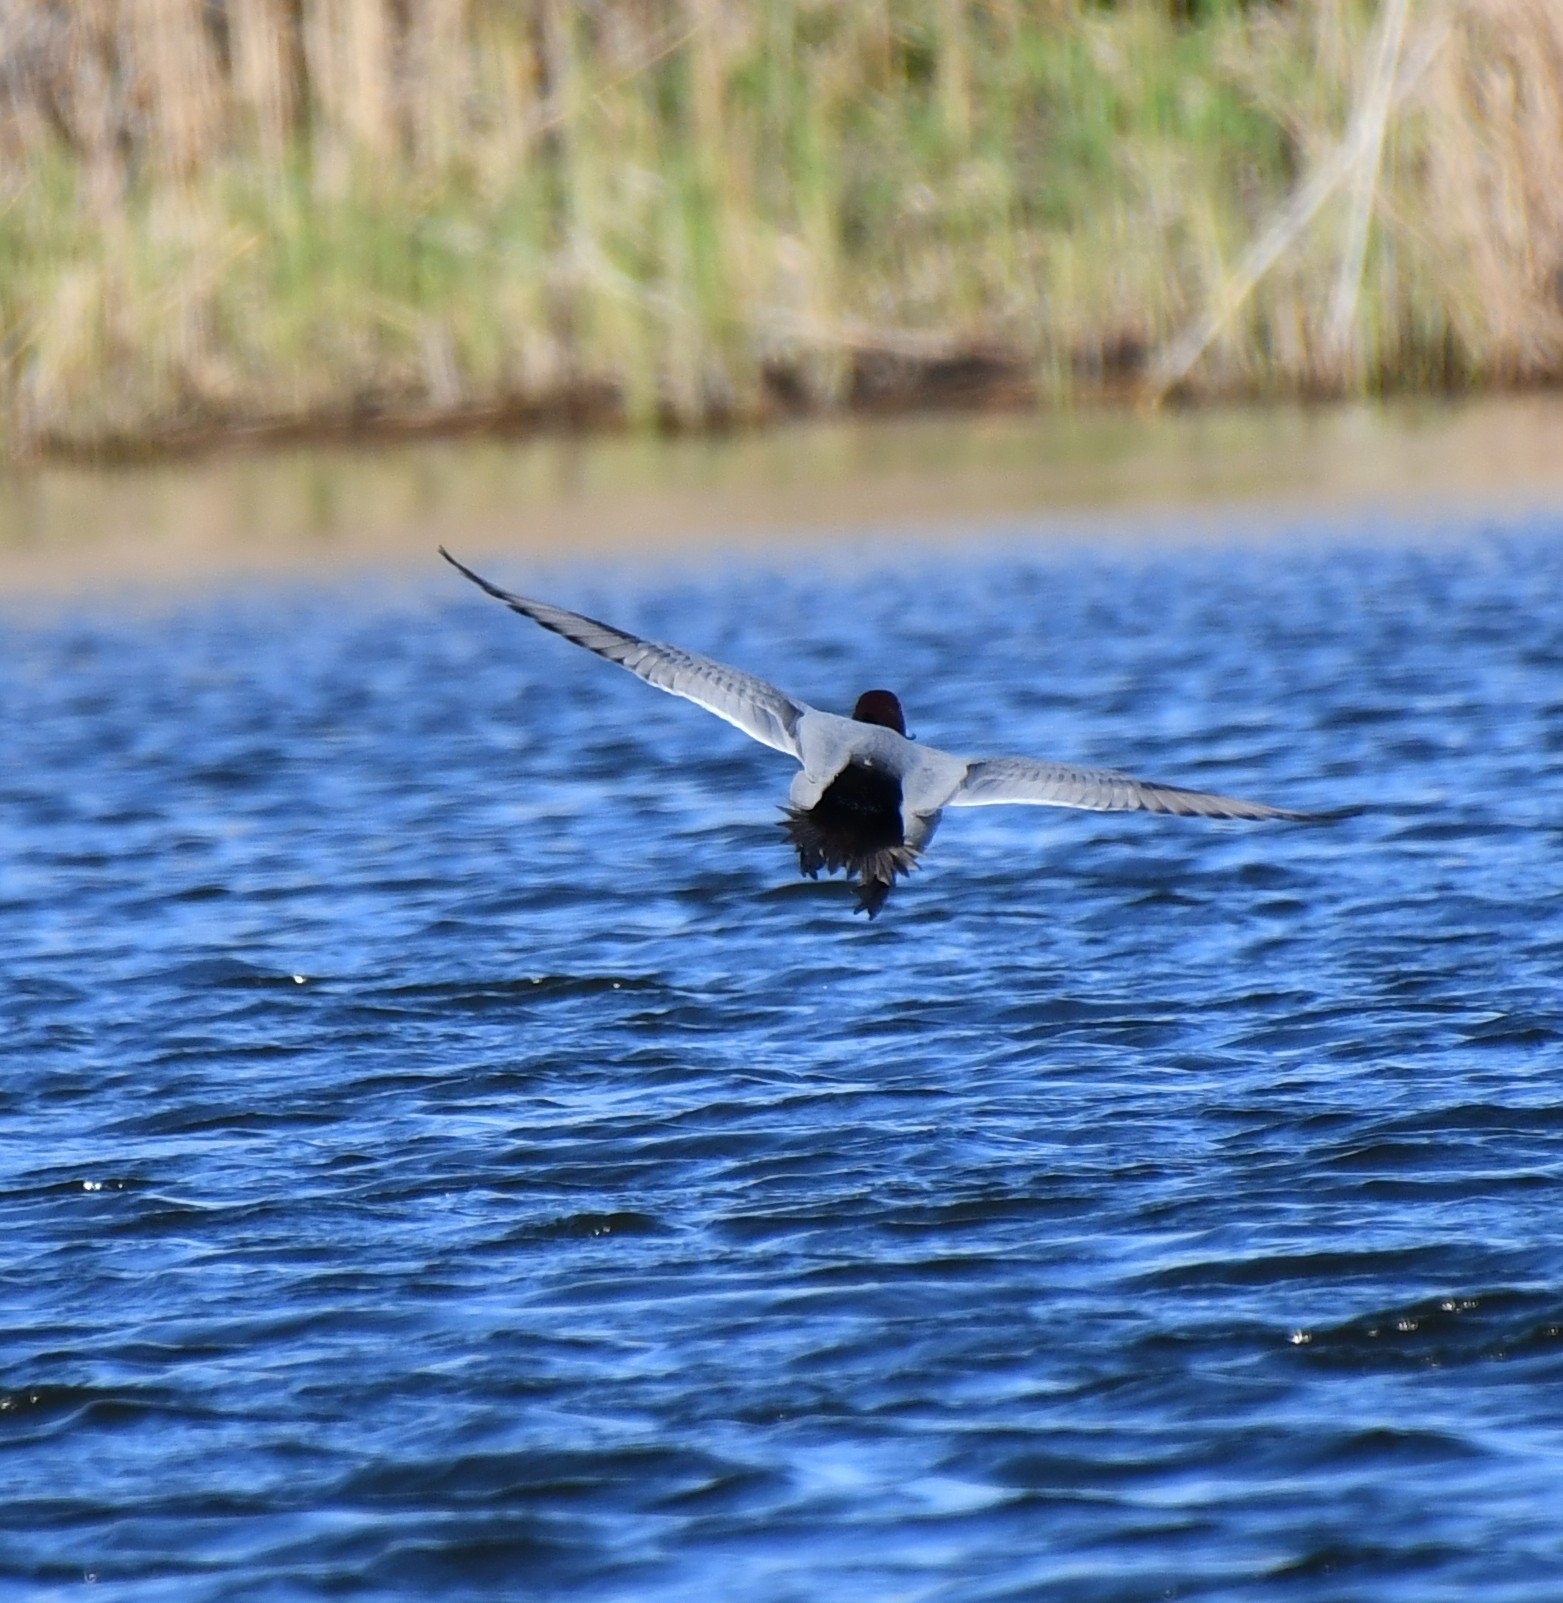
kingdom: Animalia
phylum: Chordata
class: Aves
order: Anseriformes
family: Anatidae
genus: Aythya
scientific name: Aythya ferina
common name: Common pochard
